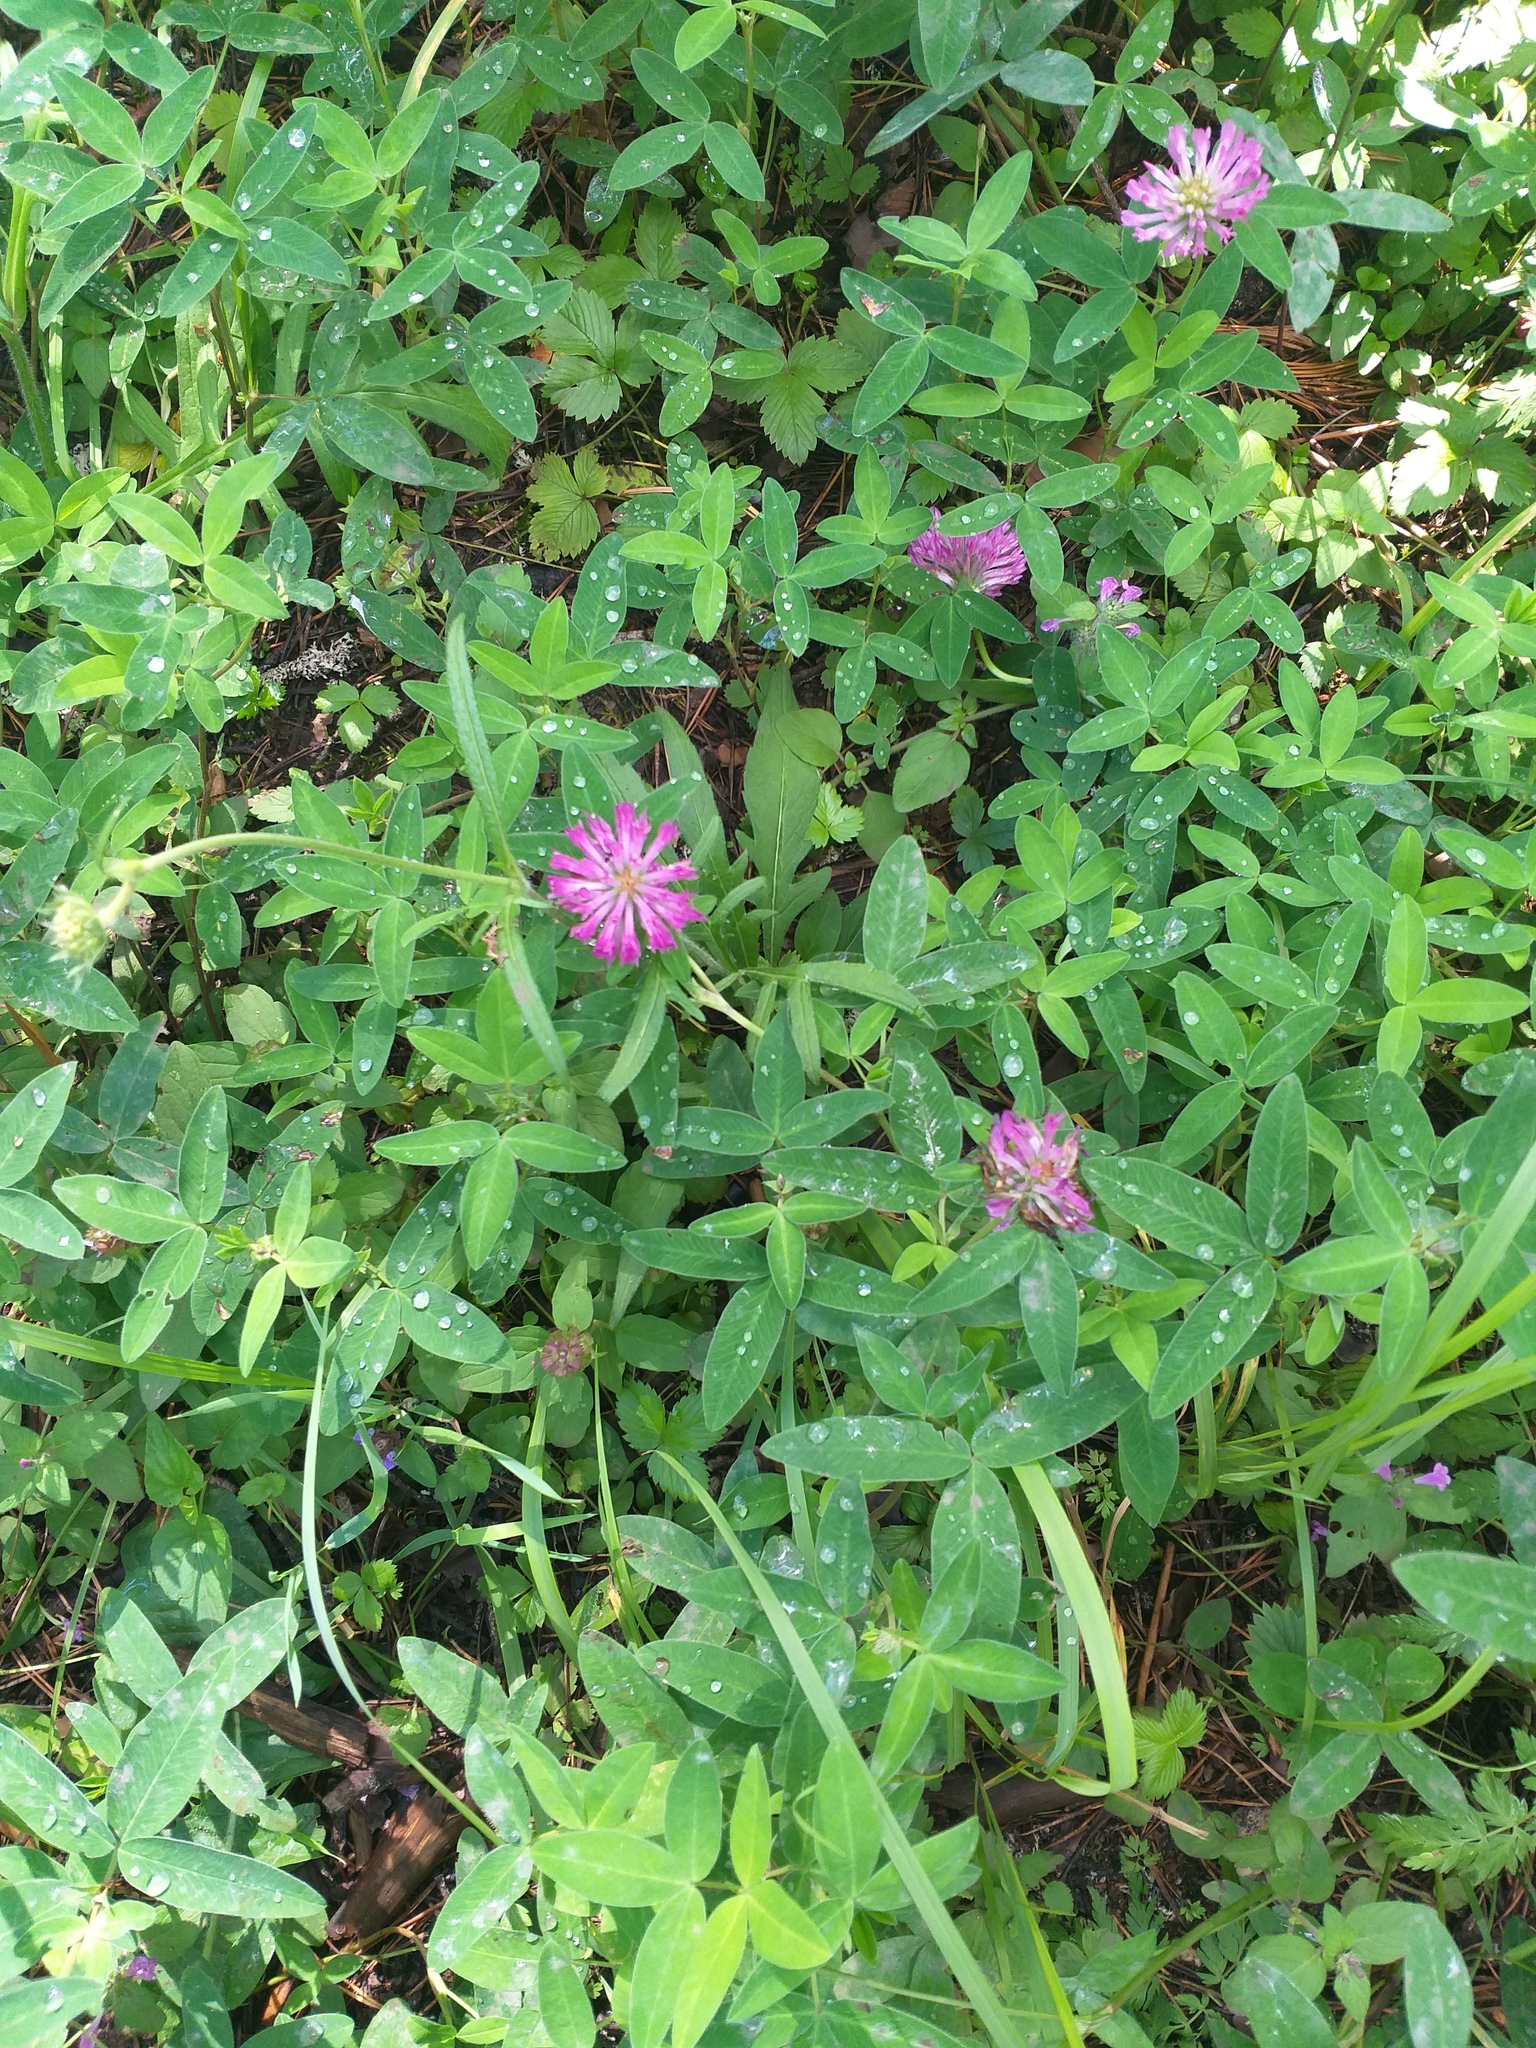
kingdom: Plantae
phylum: Tracheophyta
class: Magnoliopsida
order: Fabales
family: Fabaceae
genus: Trifolium
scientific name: Trifolium medium
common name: Zigzag clover
